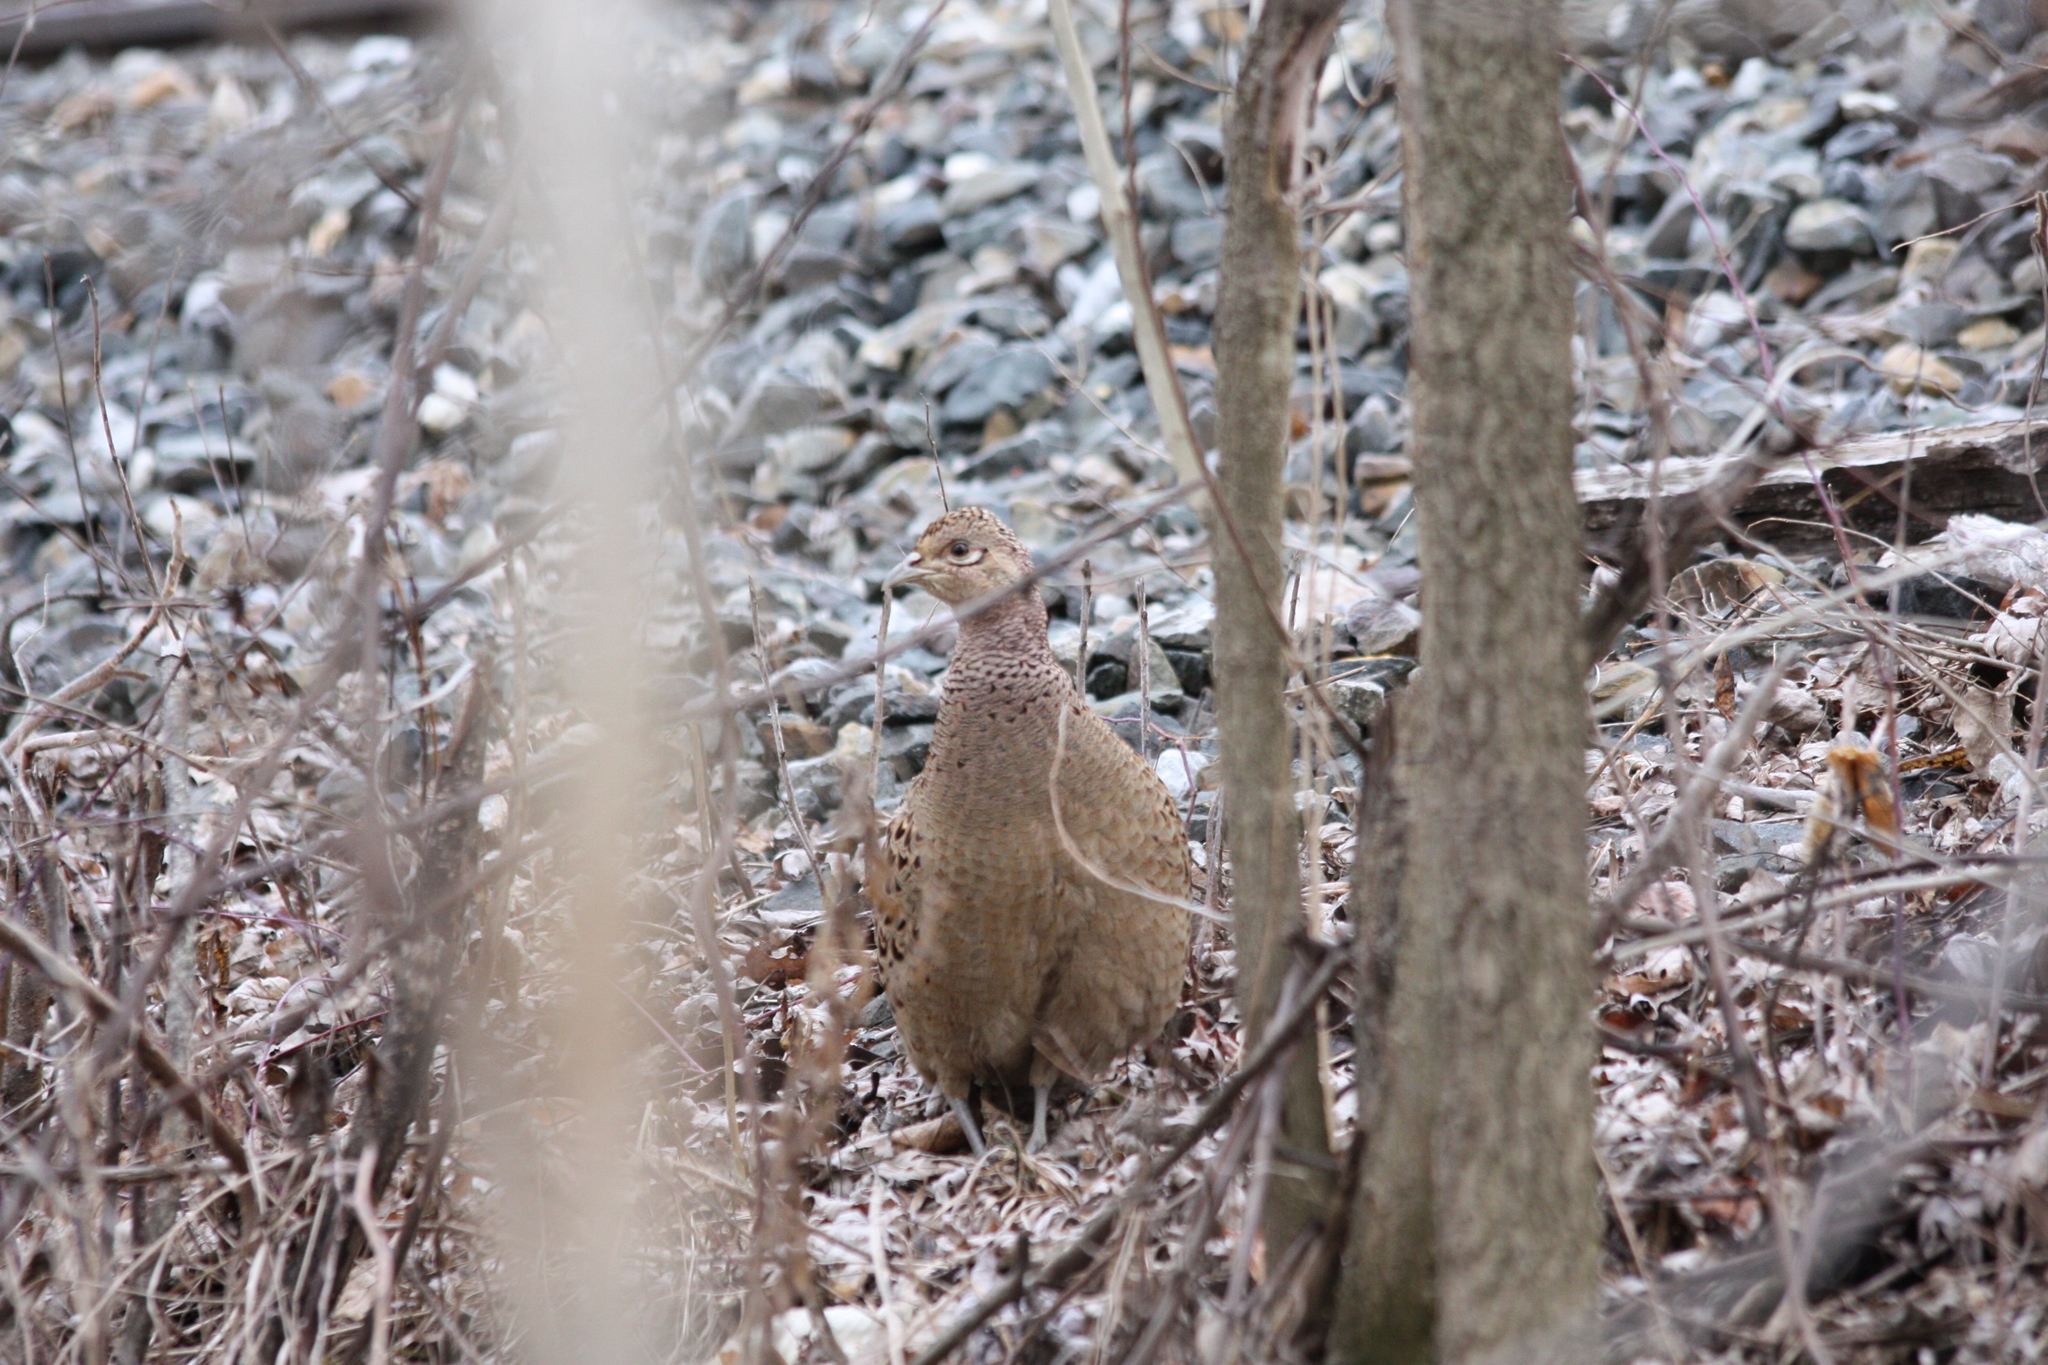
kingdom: Animalia
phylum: Chordata
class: Aves
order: Galliformes
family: Phasianidae
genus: Phasianus
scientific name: Phasianus colchicus
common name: Common pheasant
